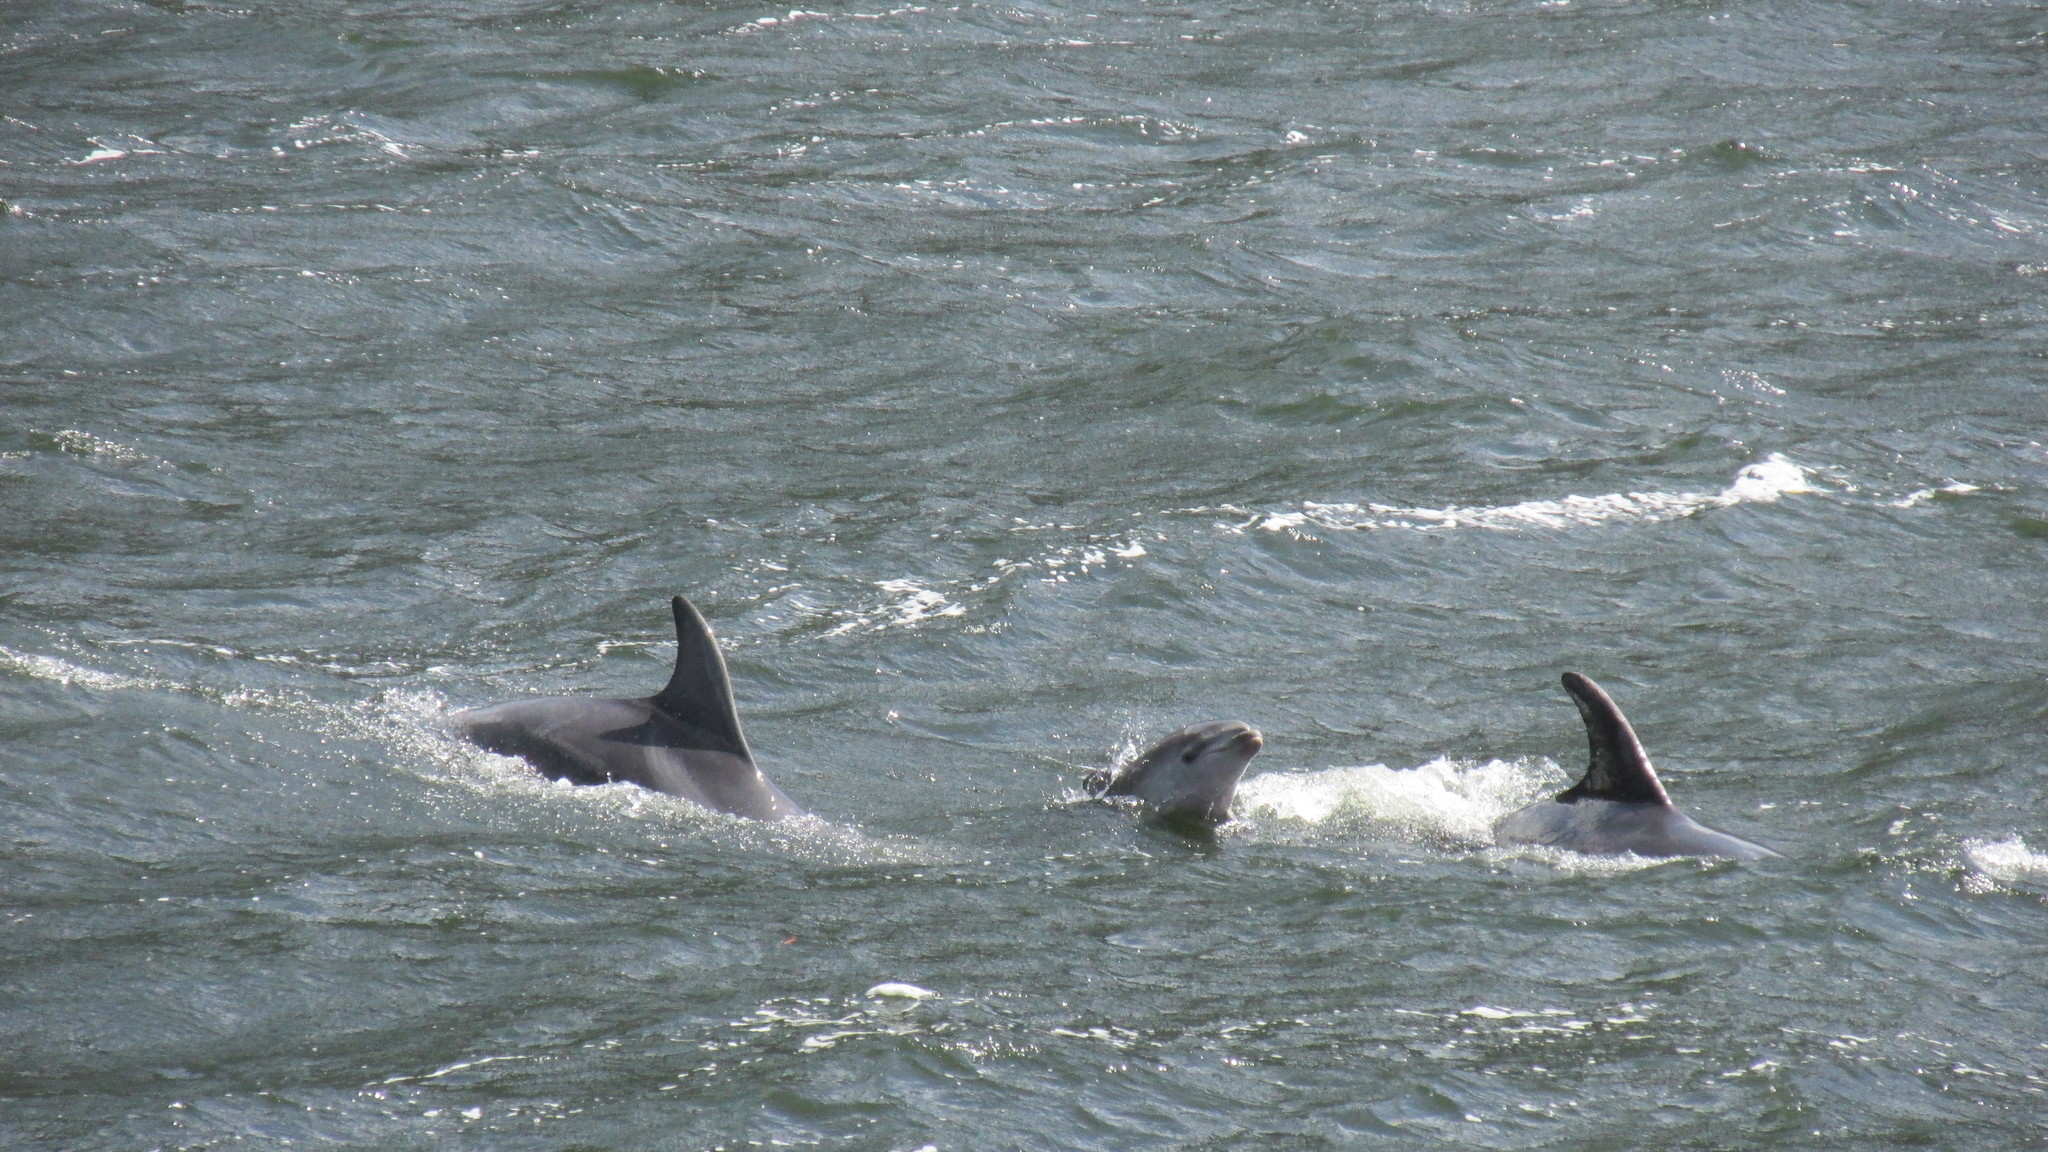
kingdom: Animalia
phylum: Chordata
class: Mammalia
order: Cetacea
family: Delphinidae
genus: Tursiops
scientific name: Tursiops truncatus
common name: Bottlenose dolphin
